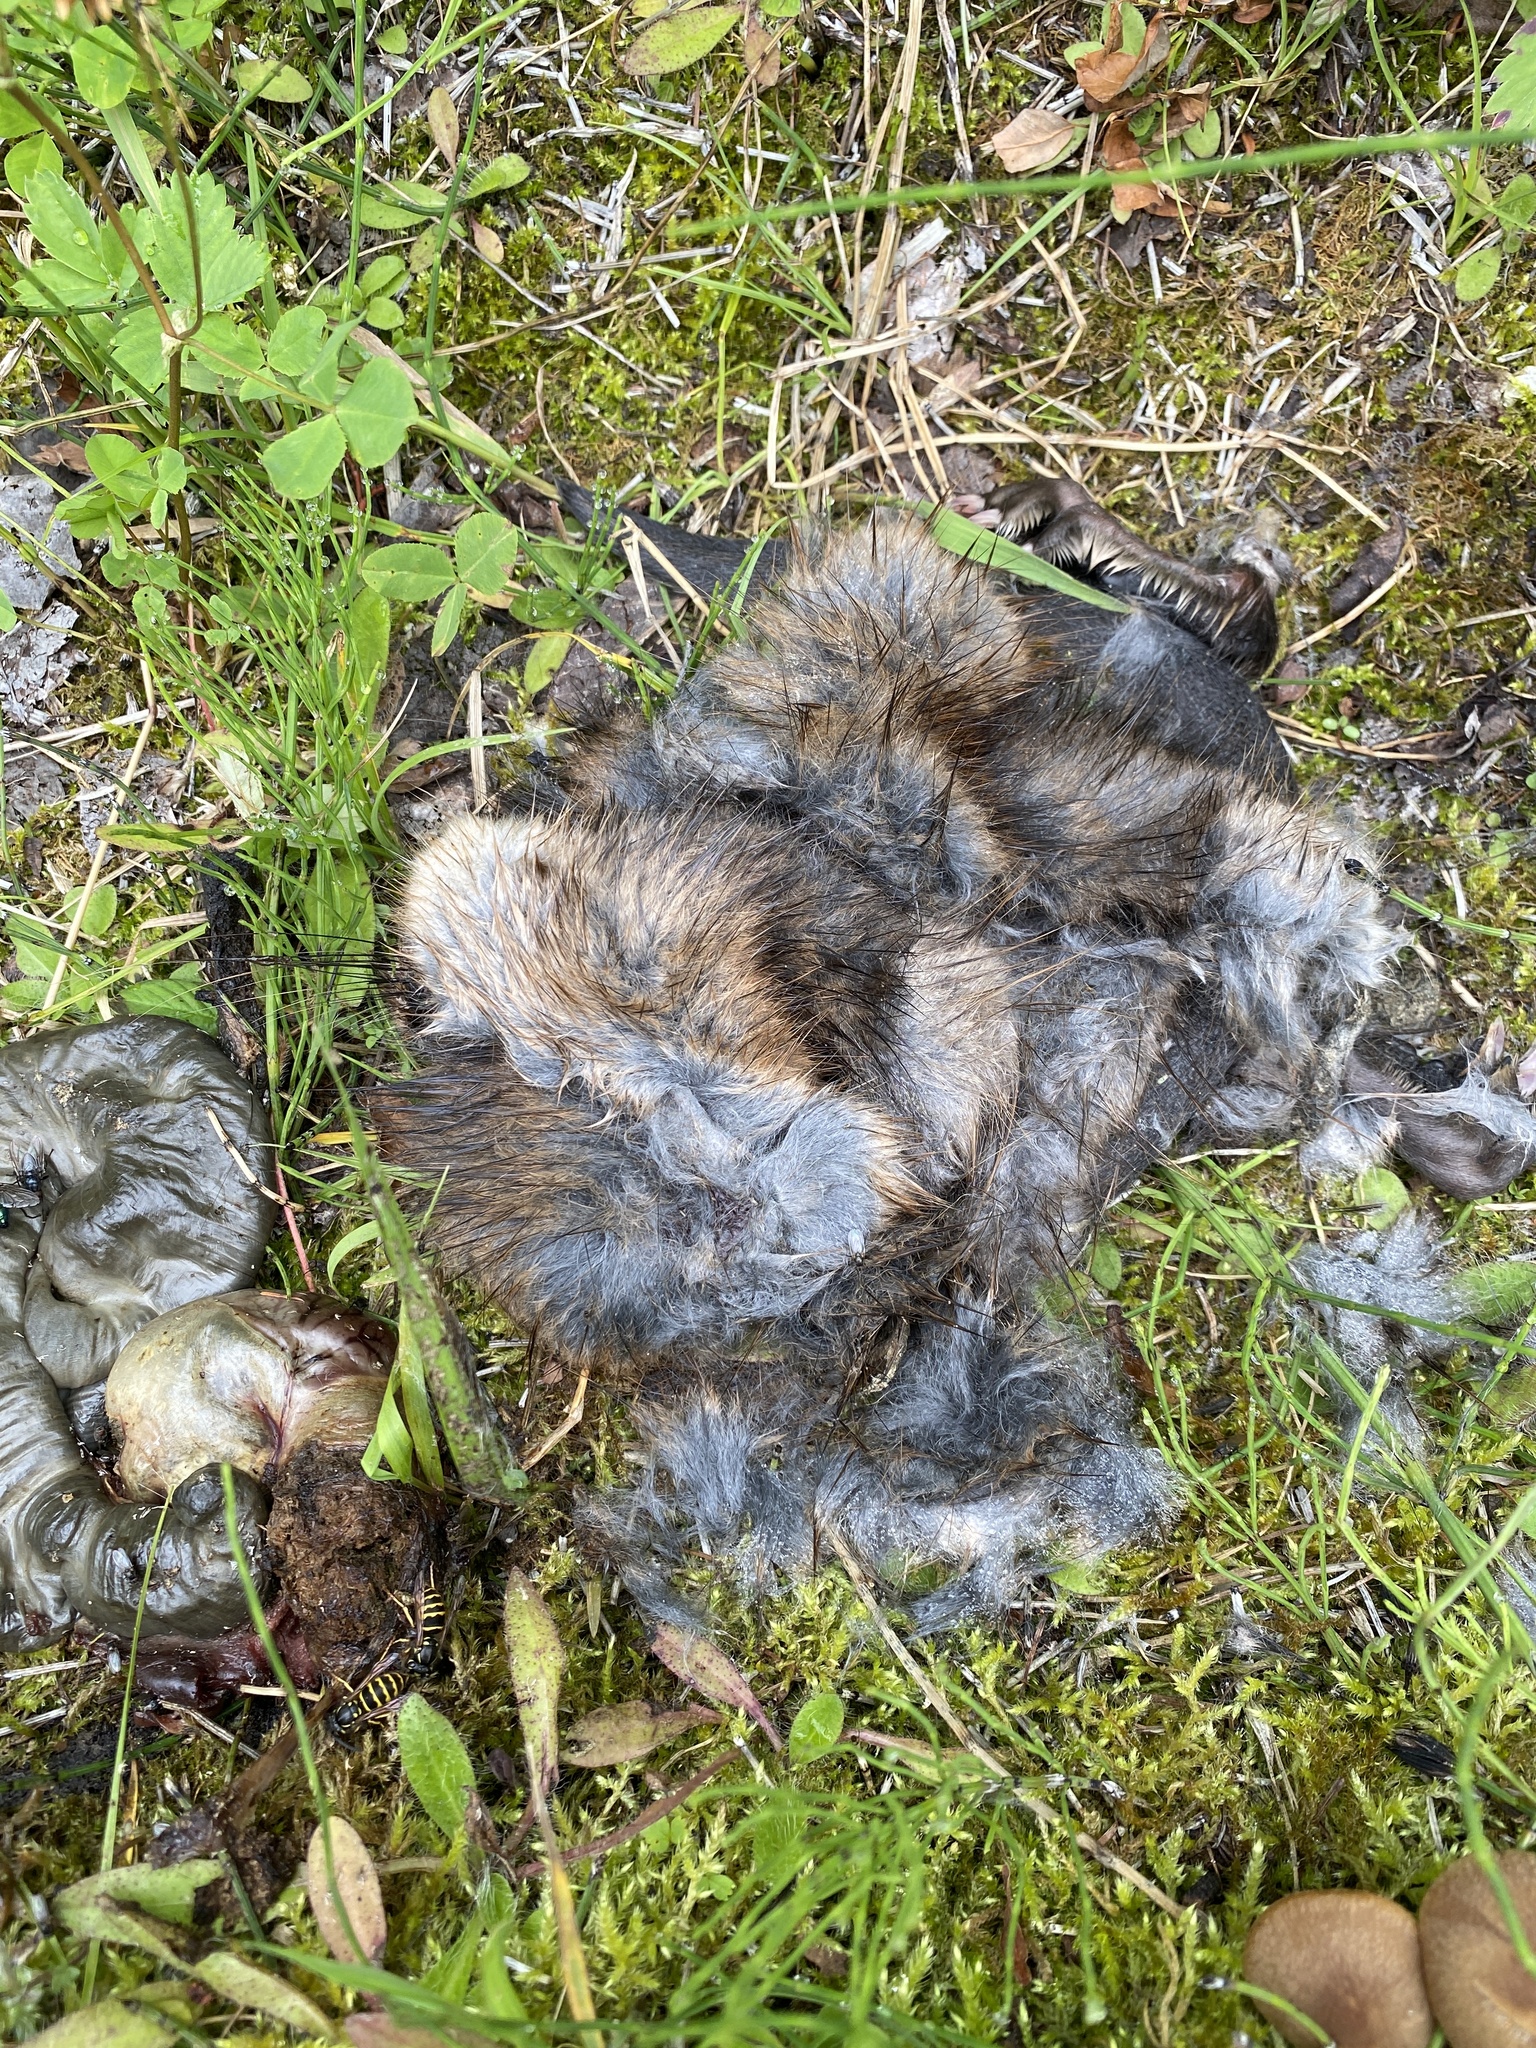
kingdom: Animalia
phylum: Chordata
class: Mammalia
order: Rodentia
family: Cricetidae
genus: Ondatra
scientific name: Ondatra zibethicus
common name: Muskrat
